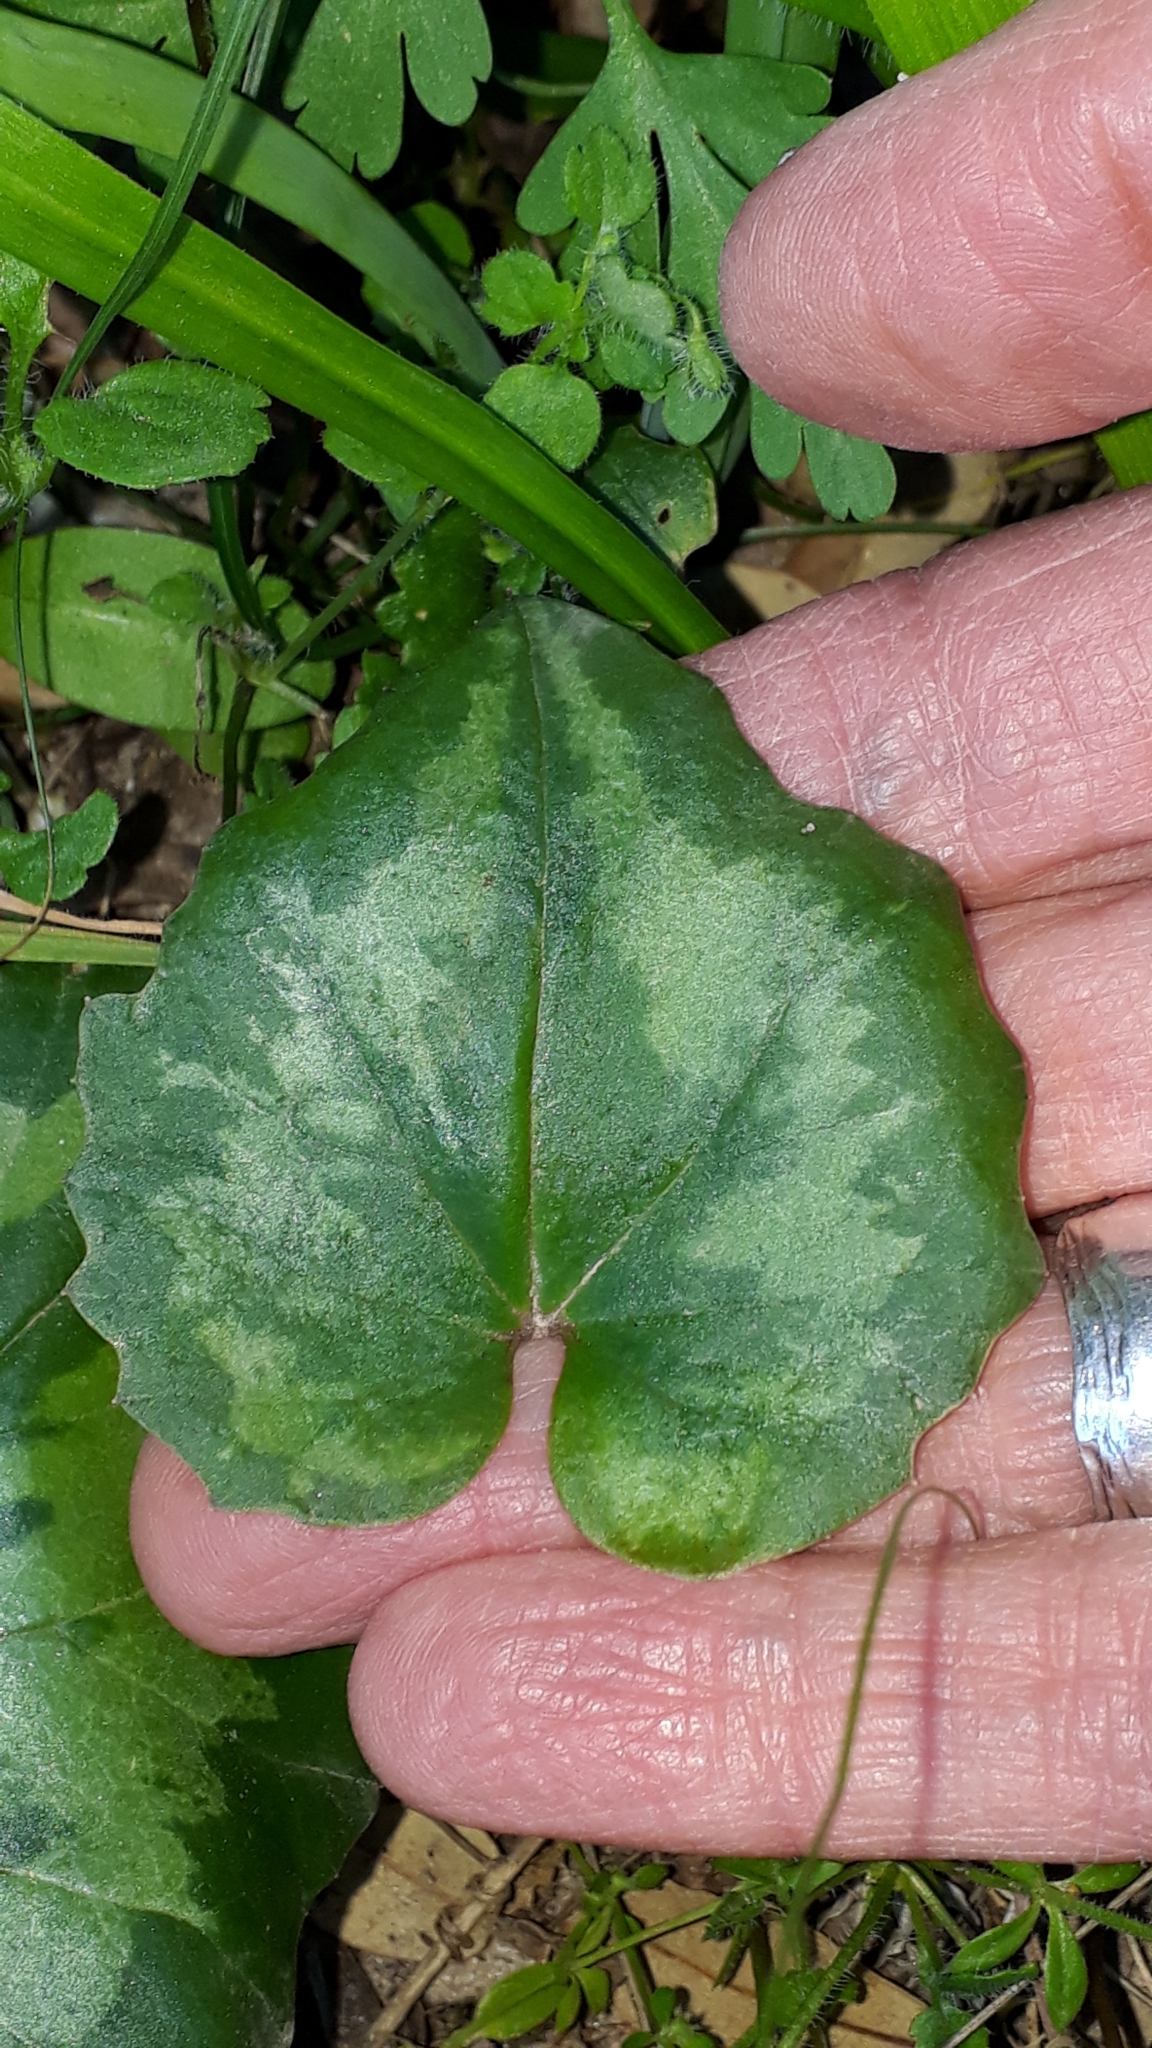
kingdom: Plantae
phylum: Tracheophyta
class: Magnoliopsida
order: Ericales
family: Primulaceae
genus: Cyclamen
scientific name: Cyclamen repandum
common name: Spring sowbread
